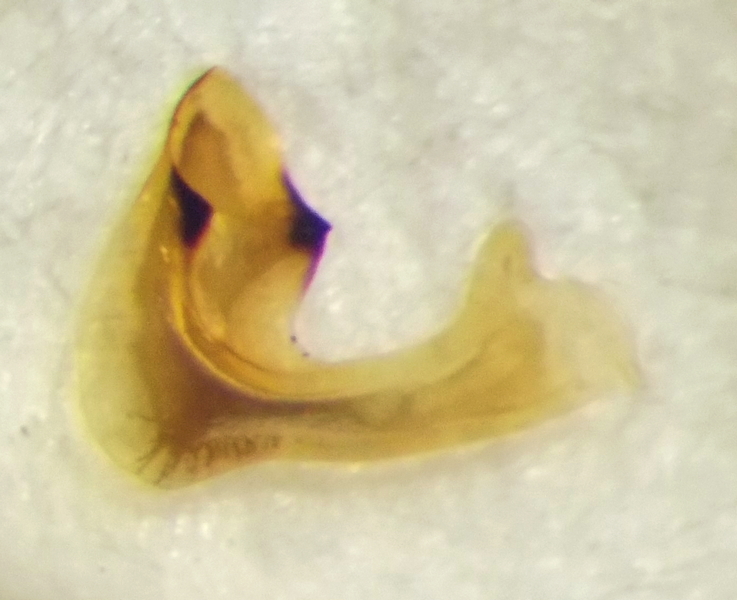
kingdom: Animalia
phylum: Arthropoda
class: Insecta
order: Hemiptera
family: Pentatomidae
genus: Carpocoris
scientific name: Carpocoris fuscispinus
